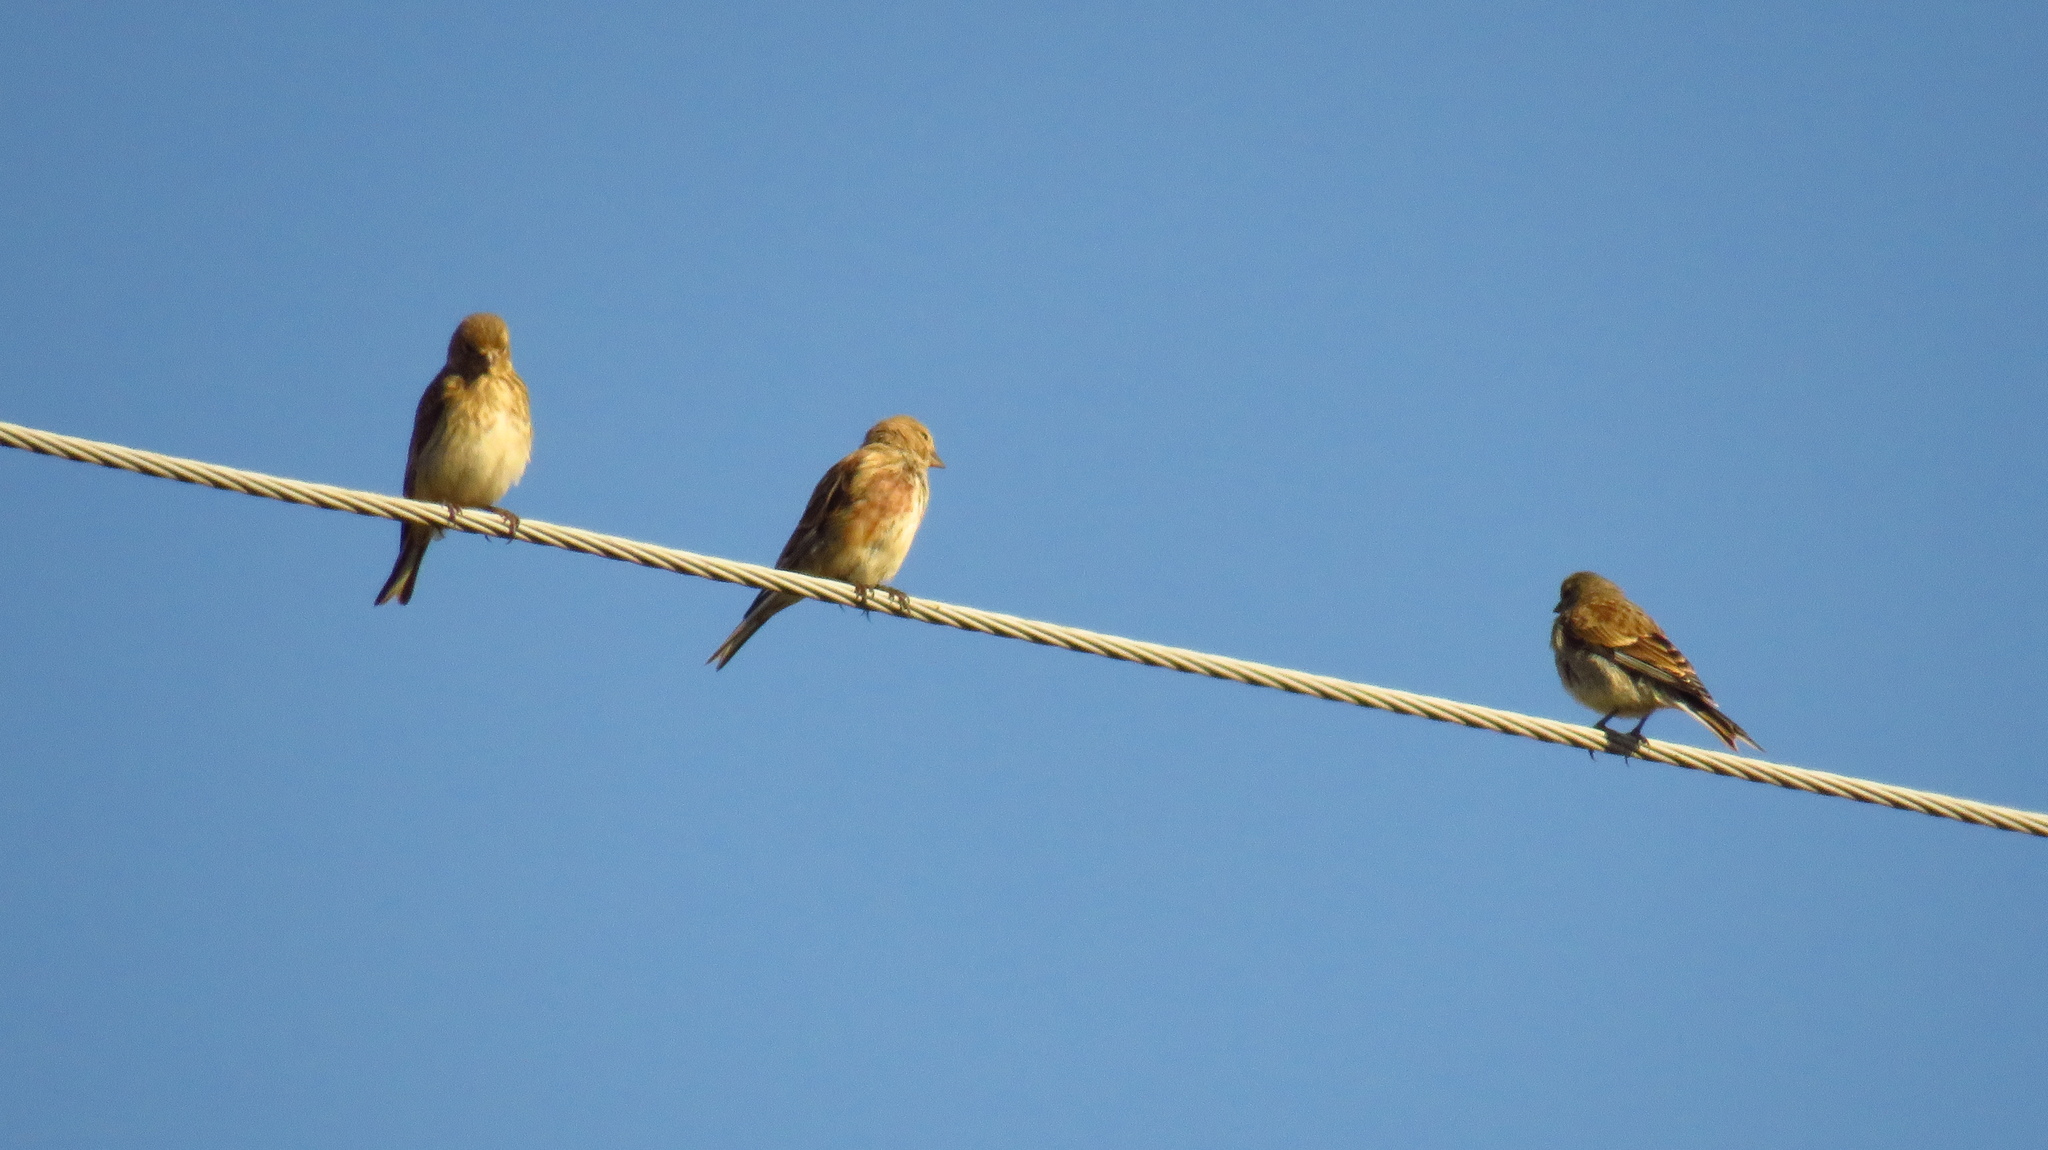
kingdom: Animalia
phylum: Chordata
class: Aves
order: Passeriformes
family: Fringillidae
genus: Linaria
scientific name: Linaria cannabina
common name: Common linnet
